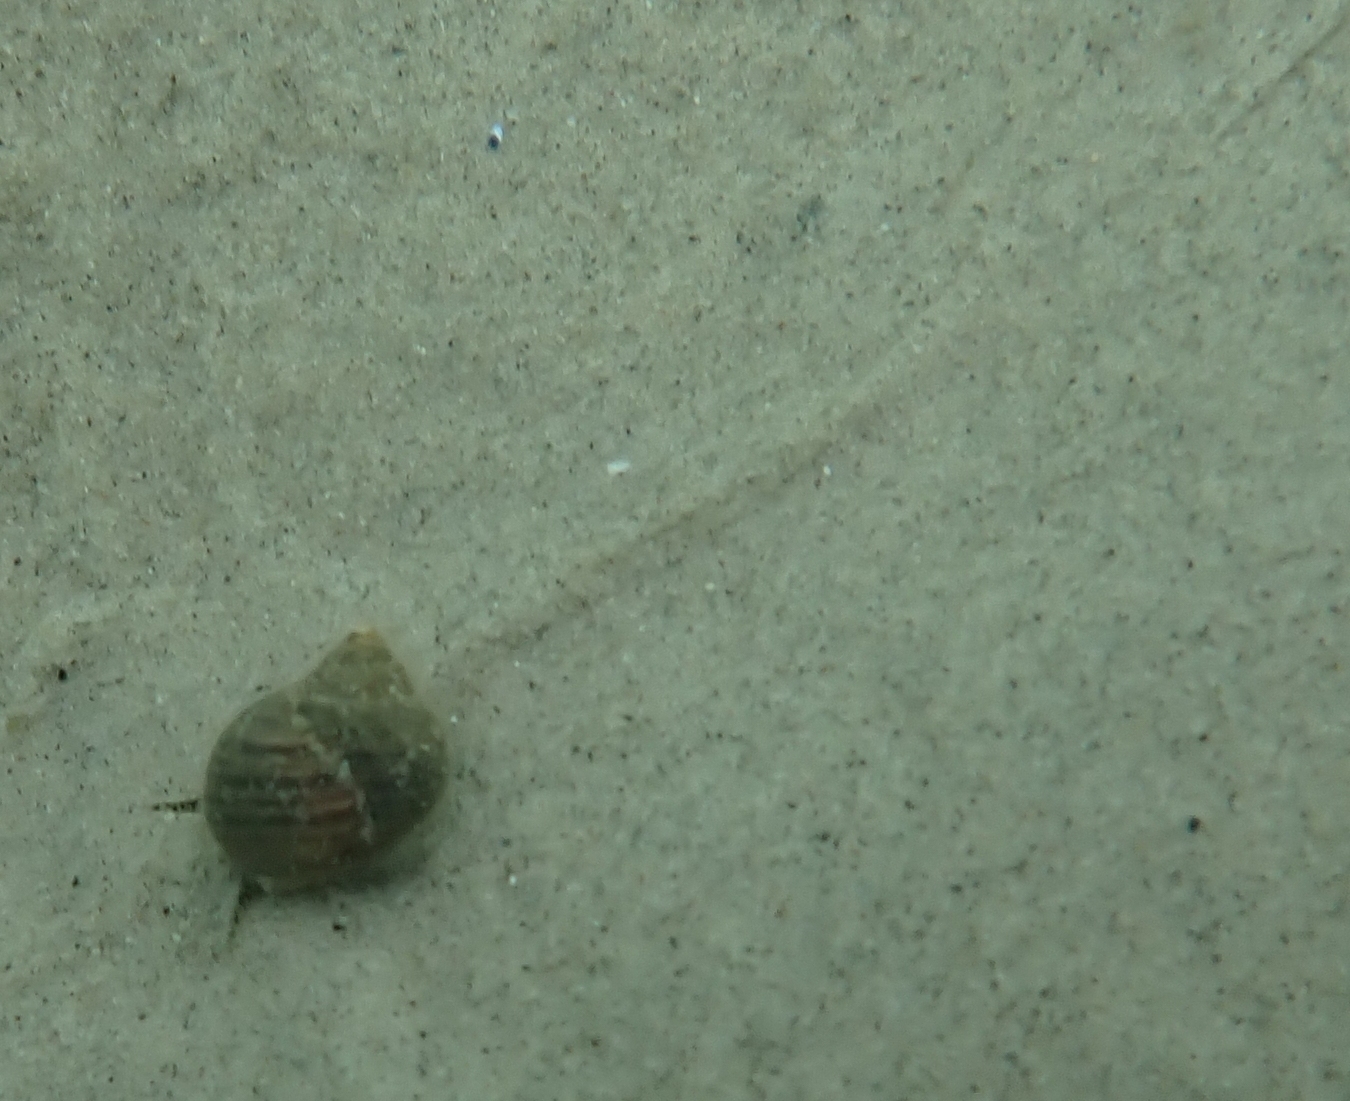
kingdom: Animalia
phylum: Mollusca
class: Gastropoda
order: Littorinimorpha
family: Littorinidae
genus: Littorina
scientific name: Littorina littorea
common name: Common periwinkle
